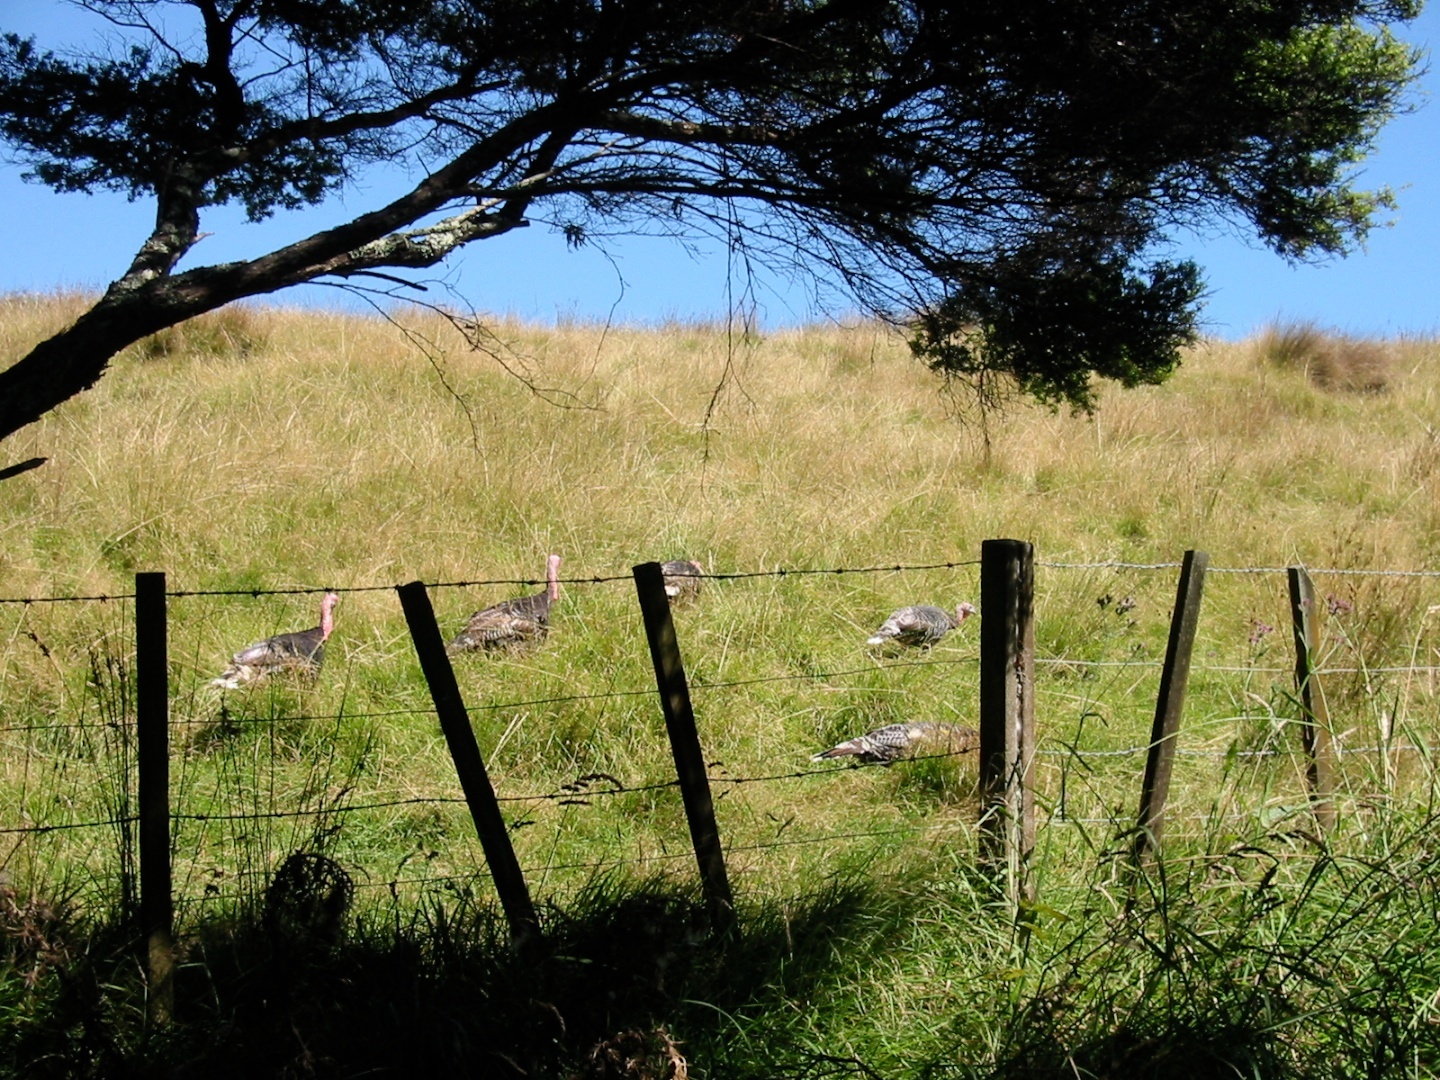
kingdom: Animalia
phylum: Chordata
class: Aves
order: Galliformes
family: Phasianidae
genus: Meleagris
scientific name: Meleagris gallopavo
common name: Wild turkey
